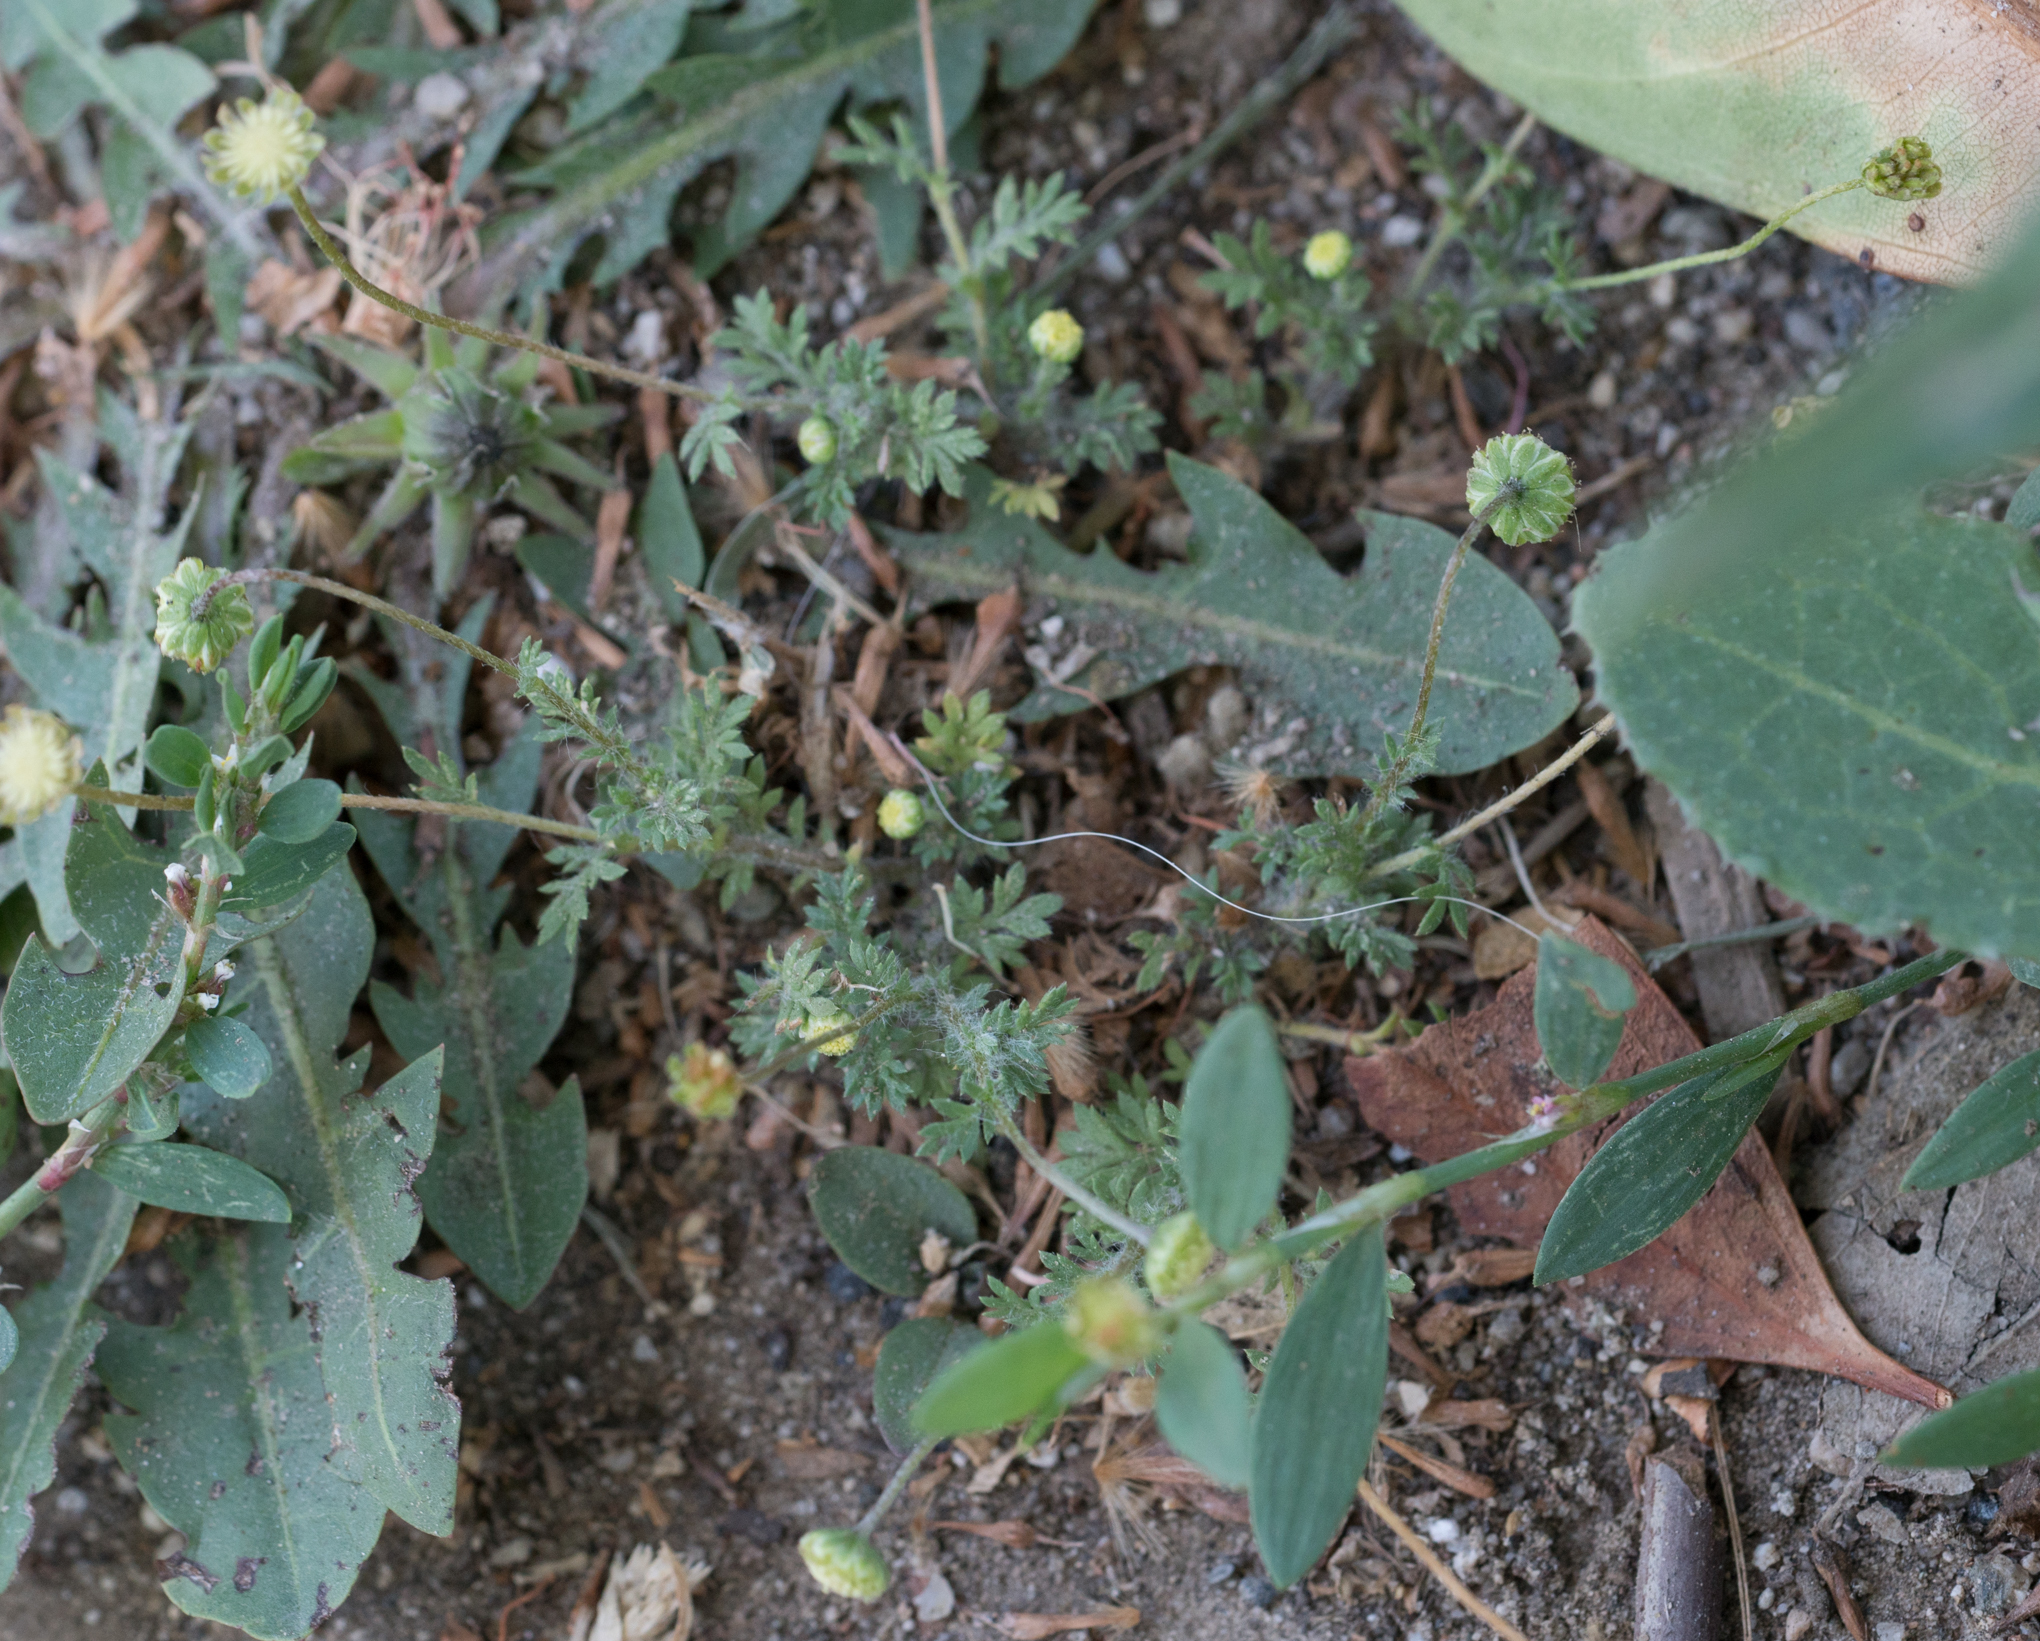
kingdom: Plantae
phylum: Tracheophyta
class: Magnoliopsida
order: Asterales
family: Asteraceae
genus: Cotula
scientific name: Cotula australis
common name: Australian waterbuttons
